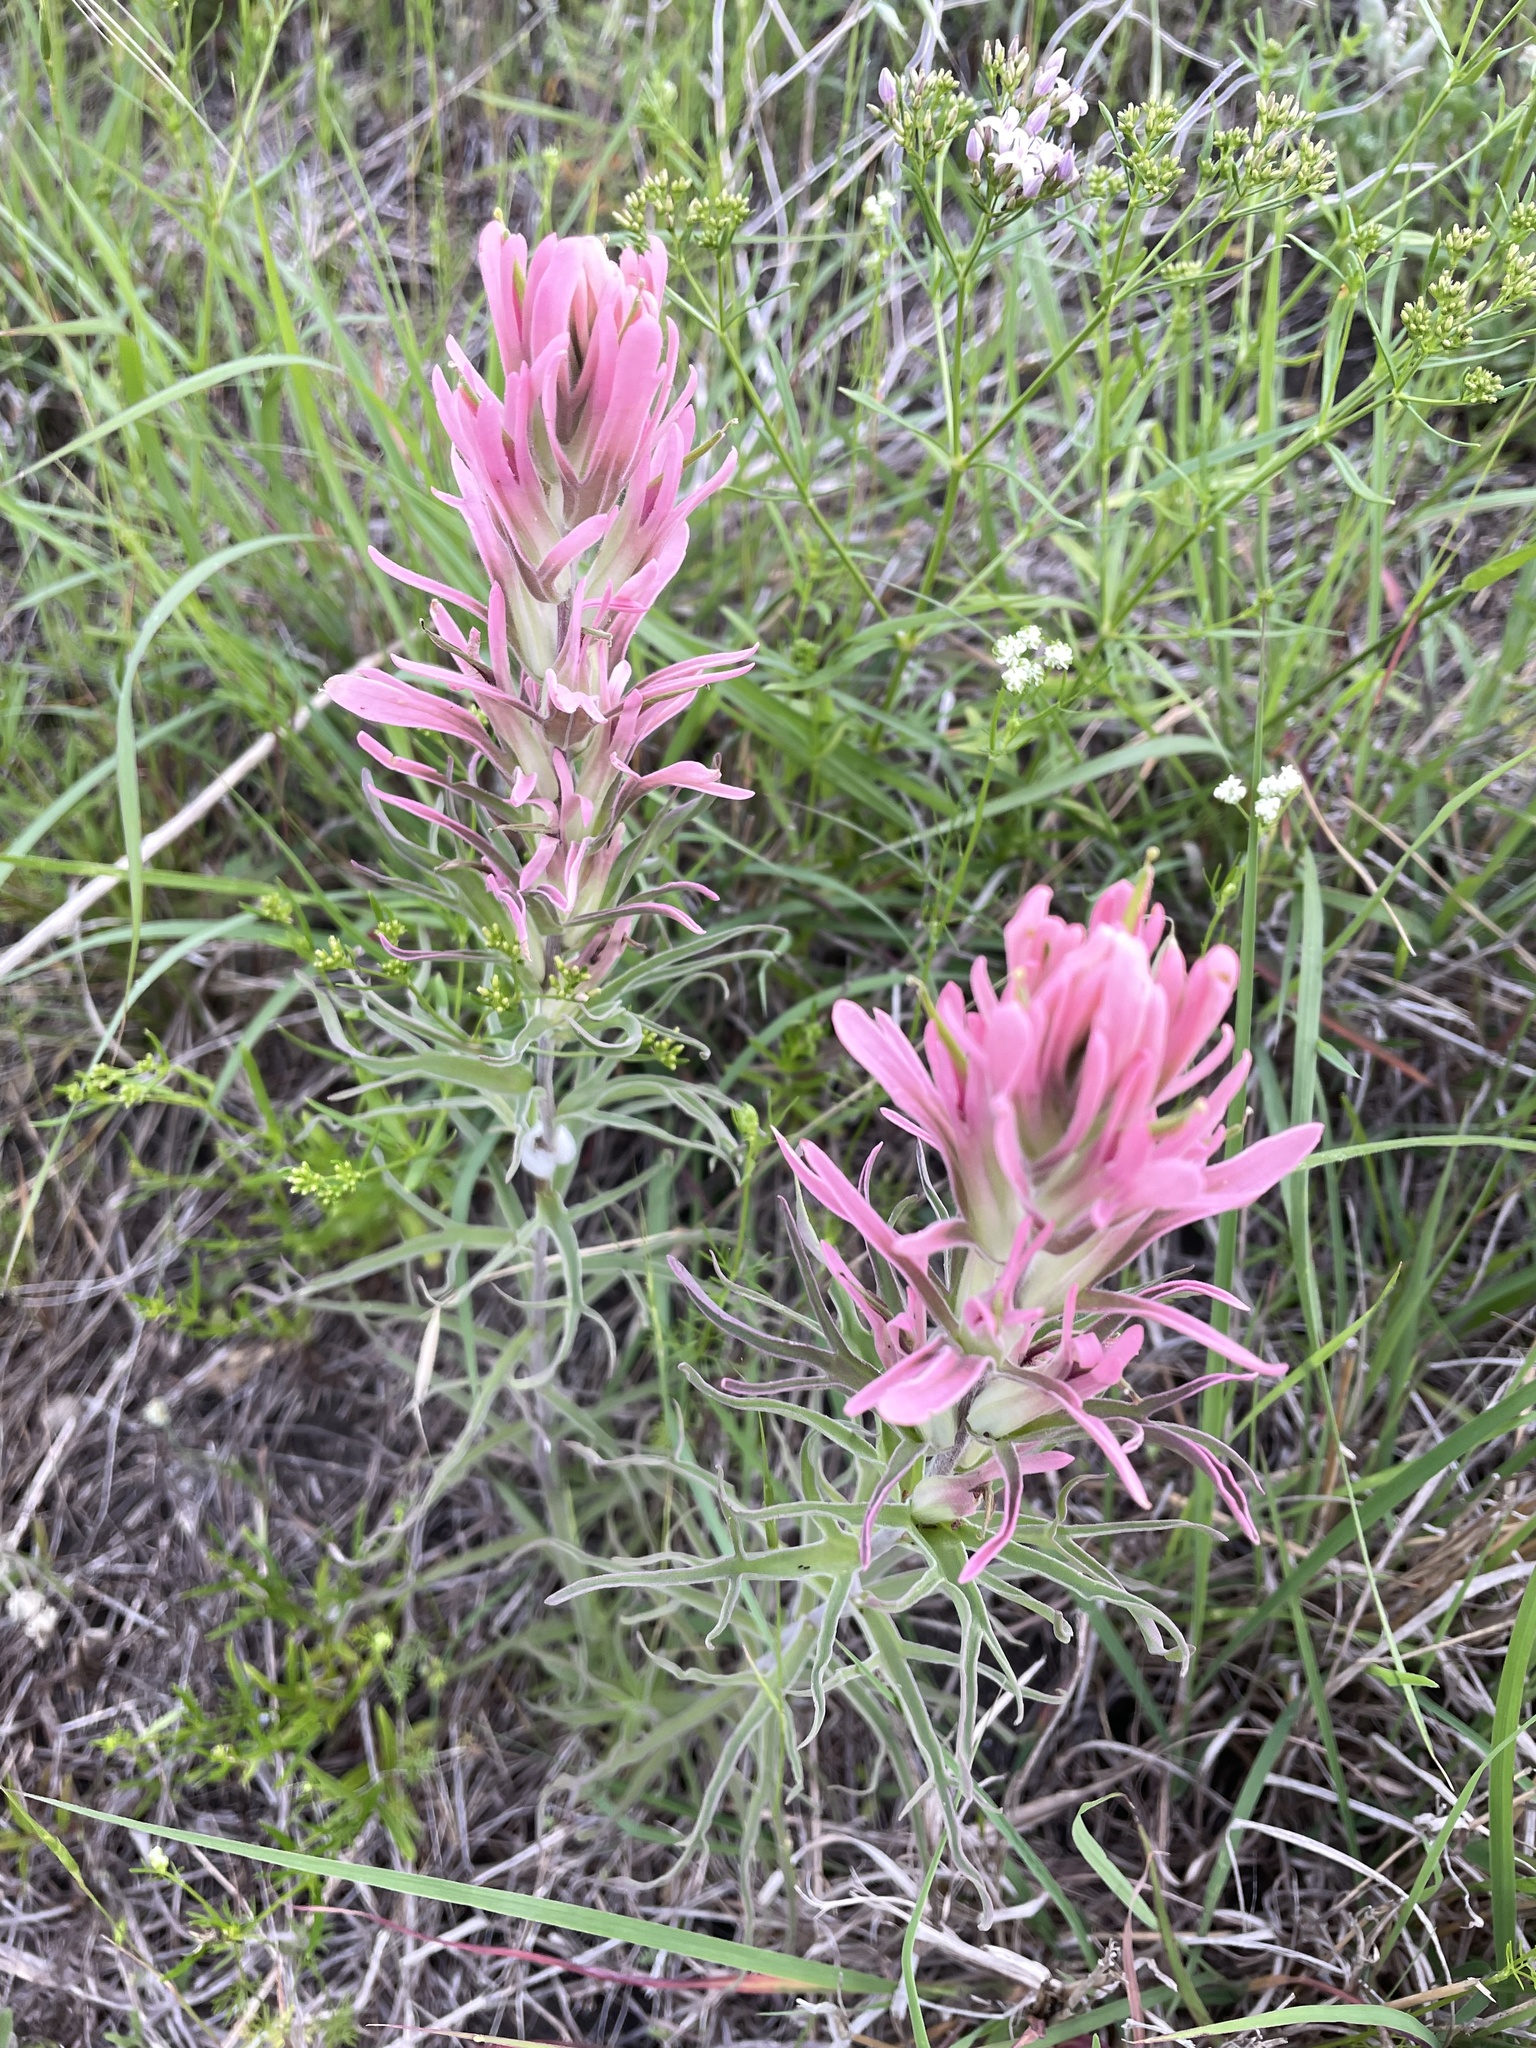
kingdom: Plantae
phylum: Tracheophyta
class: Magnoliopsida
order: Lamiales
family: Orobanchaceae
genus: Castilleja
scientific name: Castilleja purpurea
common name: Plains paintbrush
